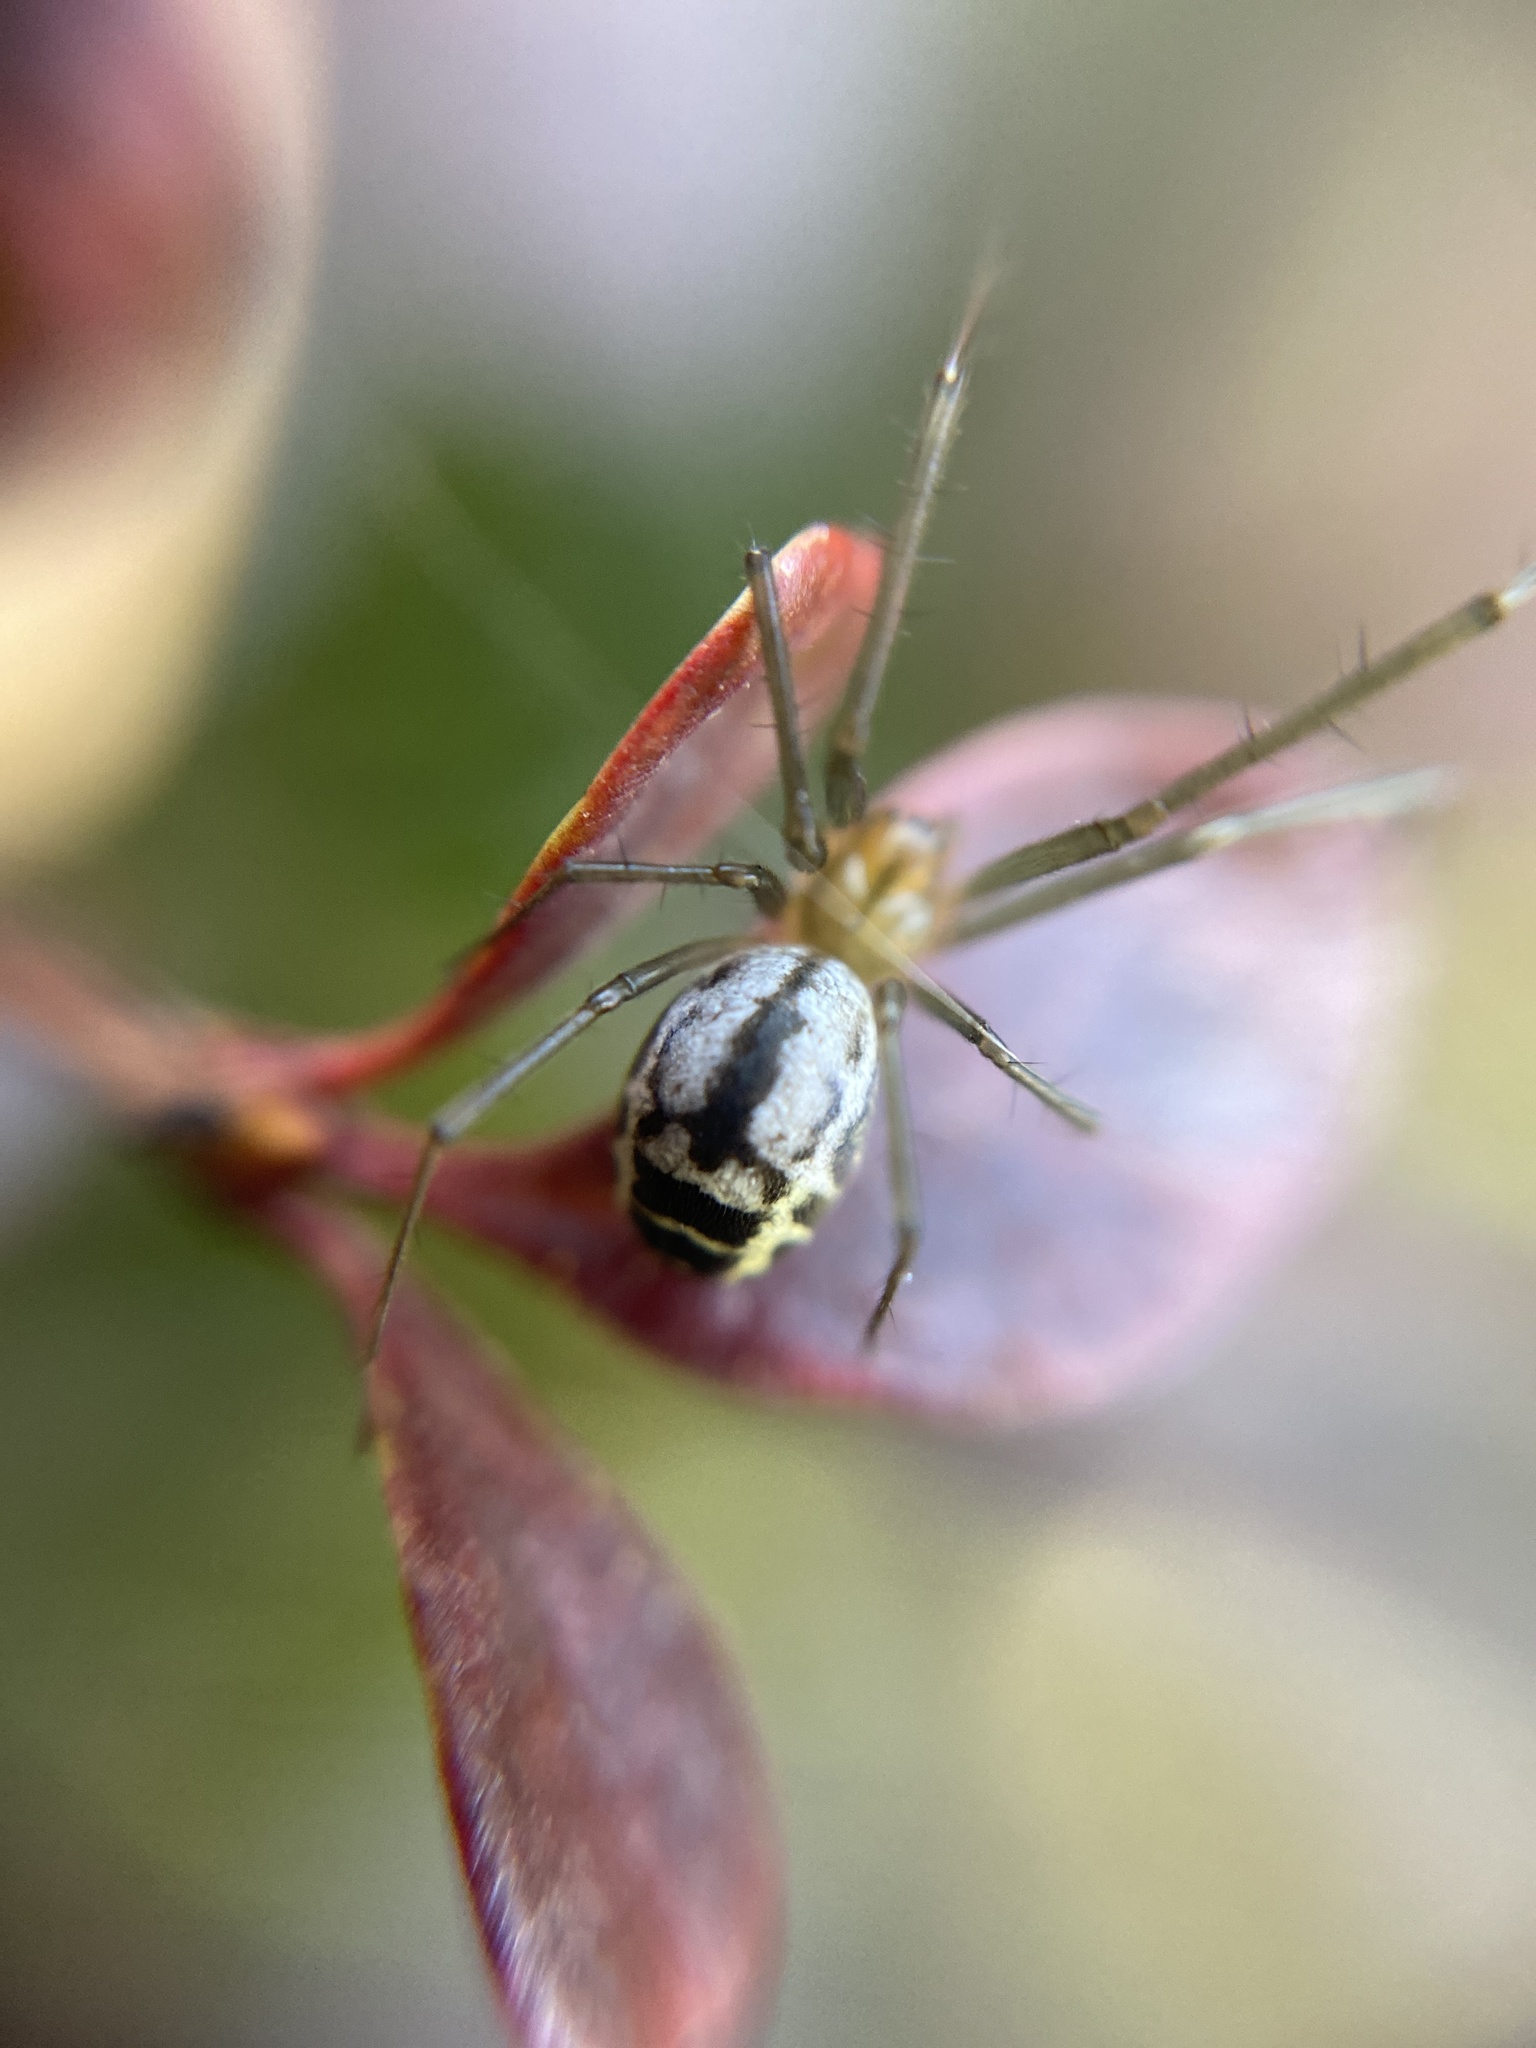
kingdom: Animalia
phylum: Arthropoda
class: Arachnida
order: Araneae
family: Linyphiidae
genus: Neriene
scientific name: Neriene emphana
